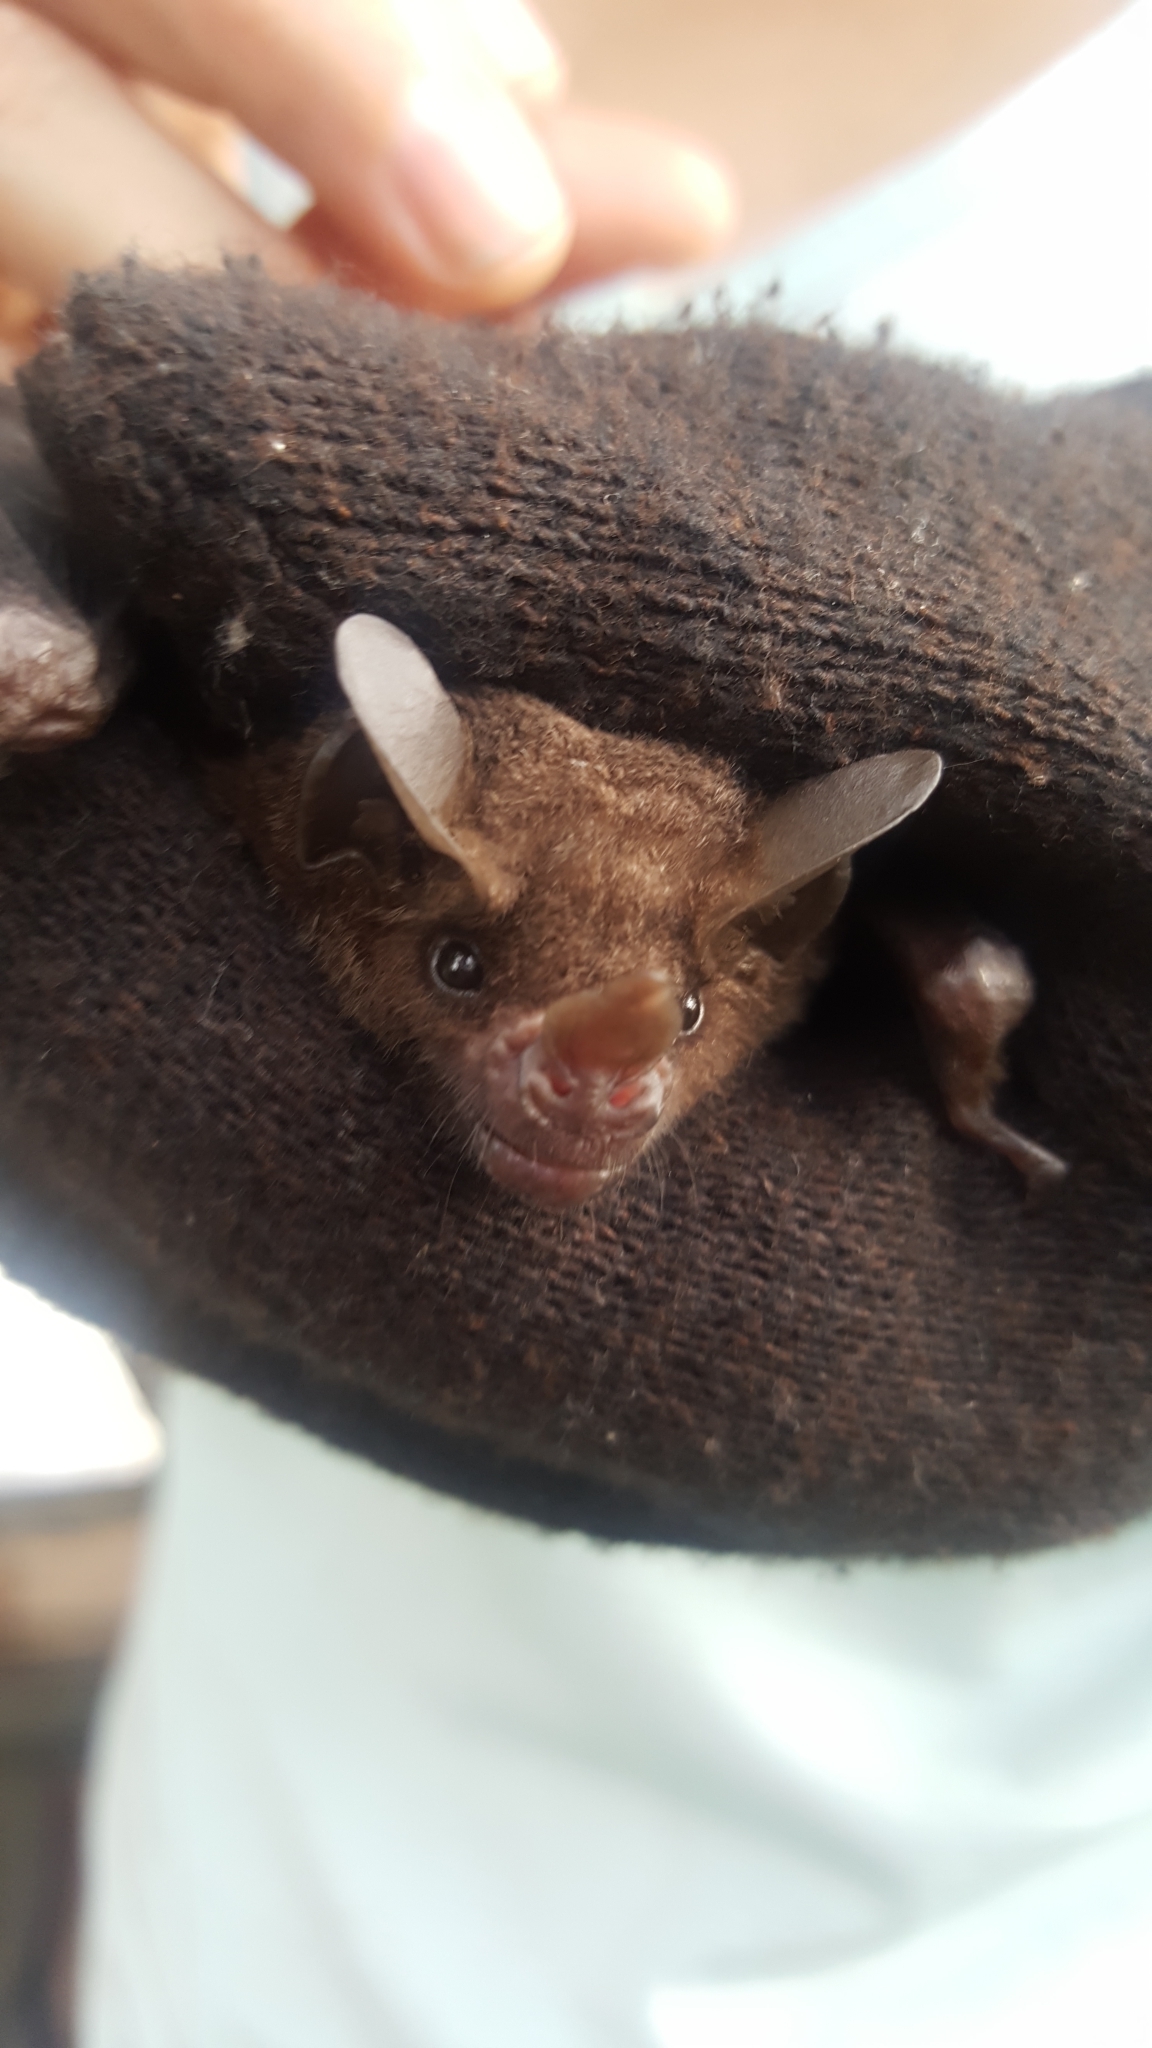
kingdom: Animalia
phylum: Chordata
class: Mammalia
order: Chiroptera
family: Phyllostomidae
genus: Carollia
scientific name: Carollia perspicillata
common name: Seba's short-tailed bat
